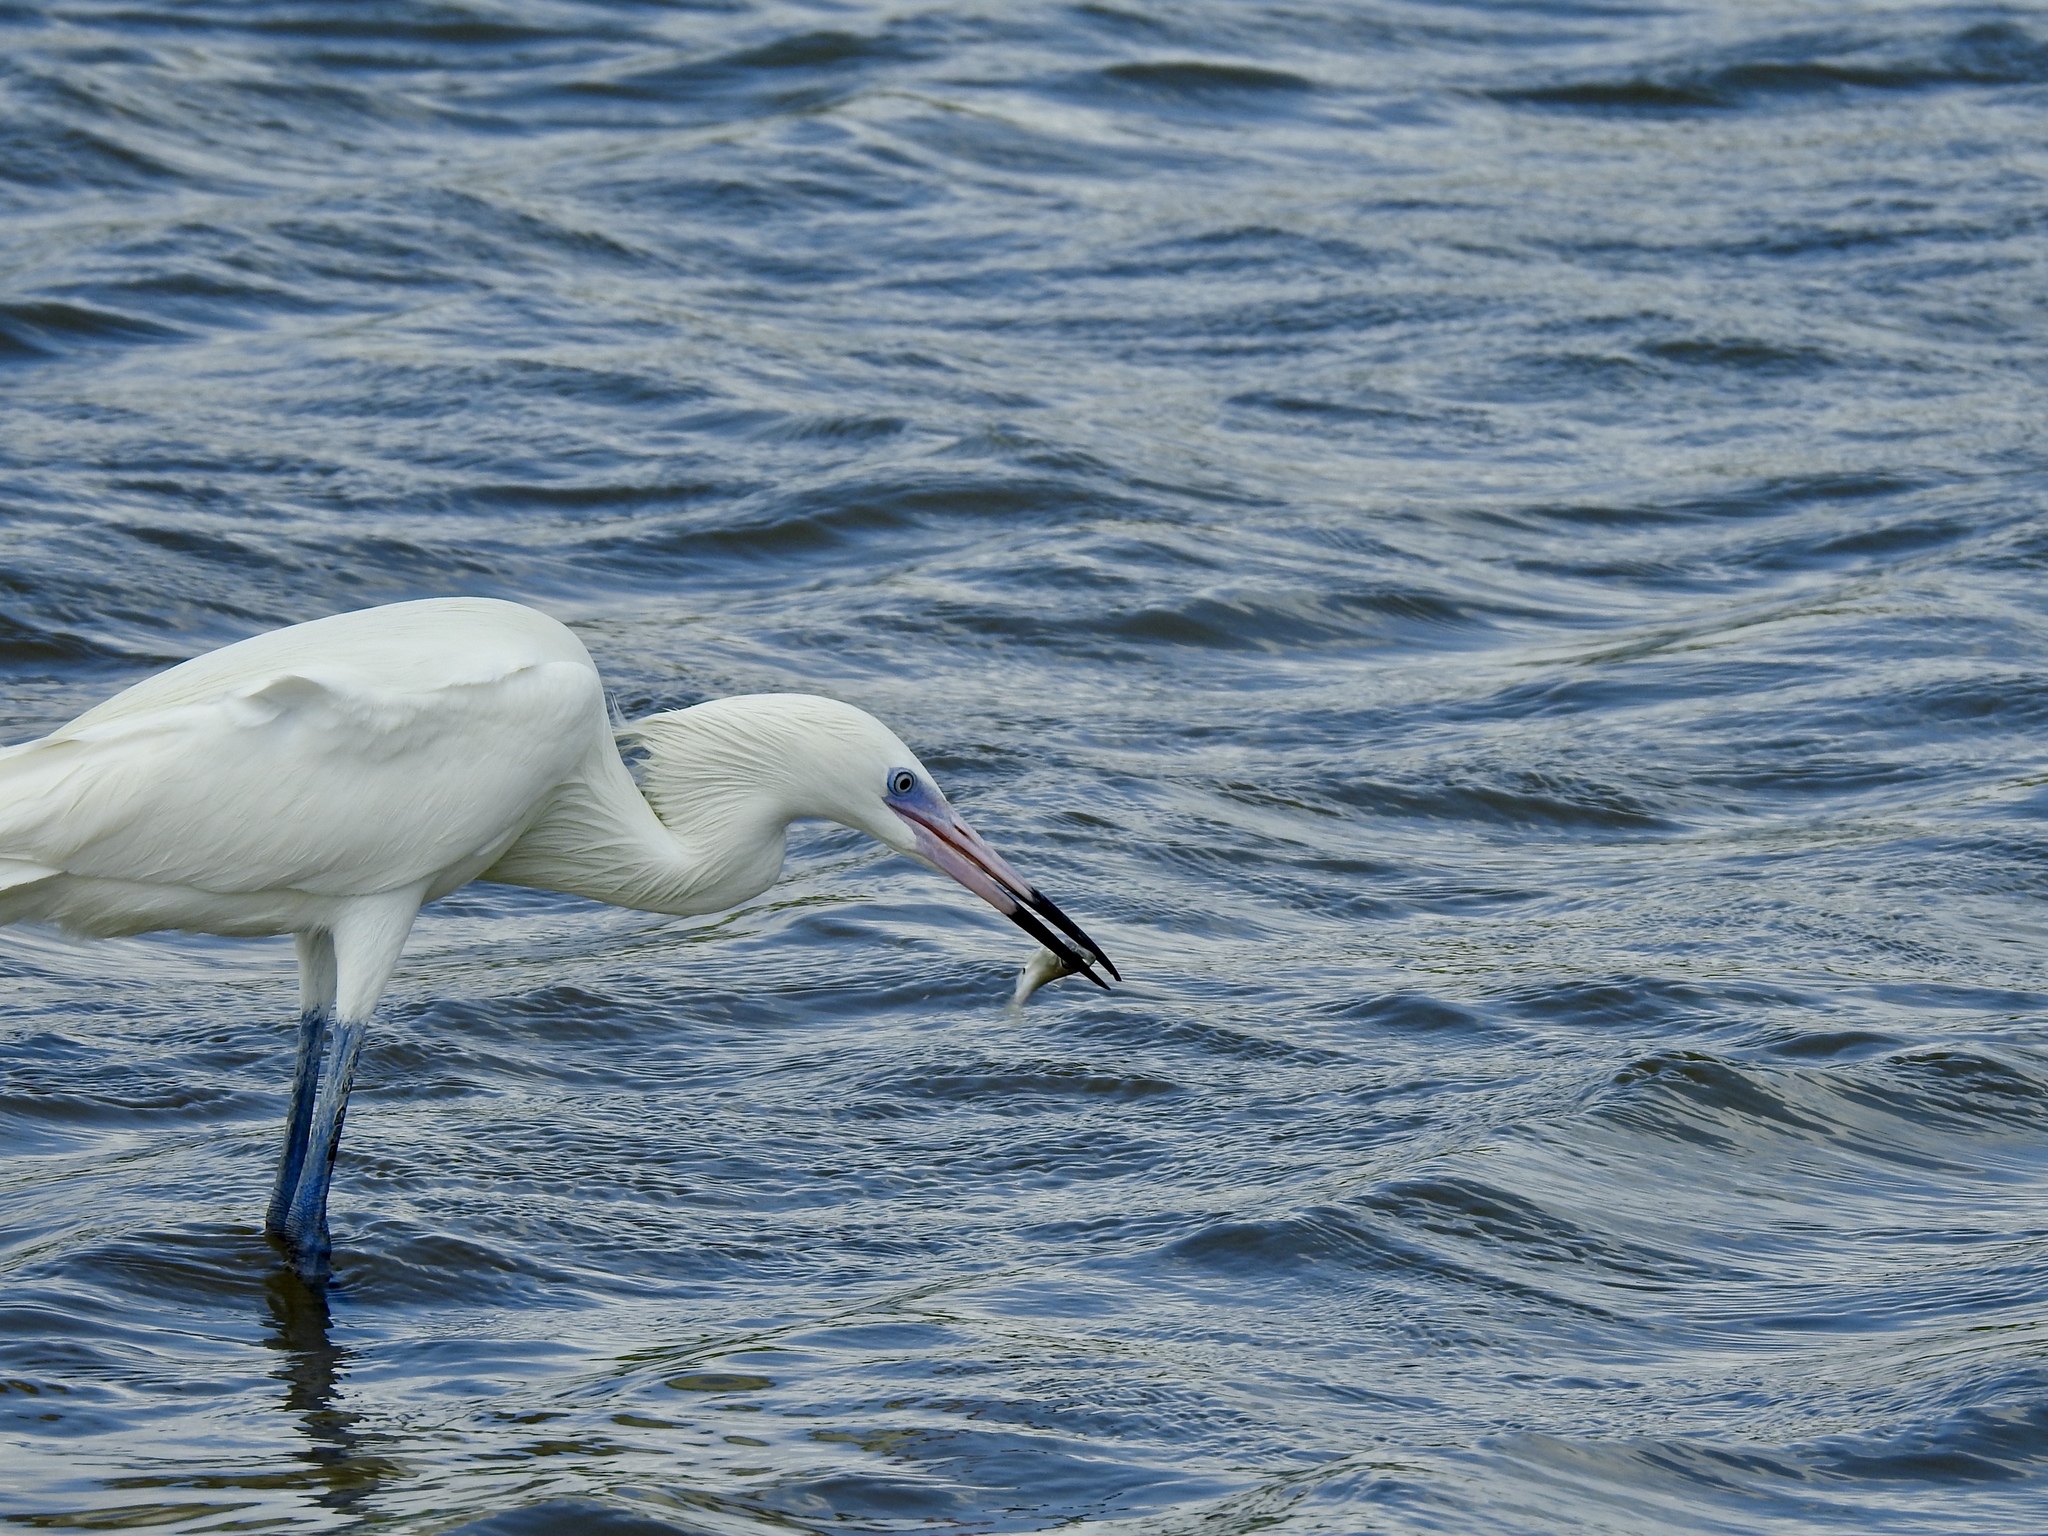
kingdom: Animalia
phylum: Chordata
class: Aves
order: Pelecaniformes
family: Ardeidae
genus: Egretta
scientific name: Egretta rufescens
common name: Reddish egret
